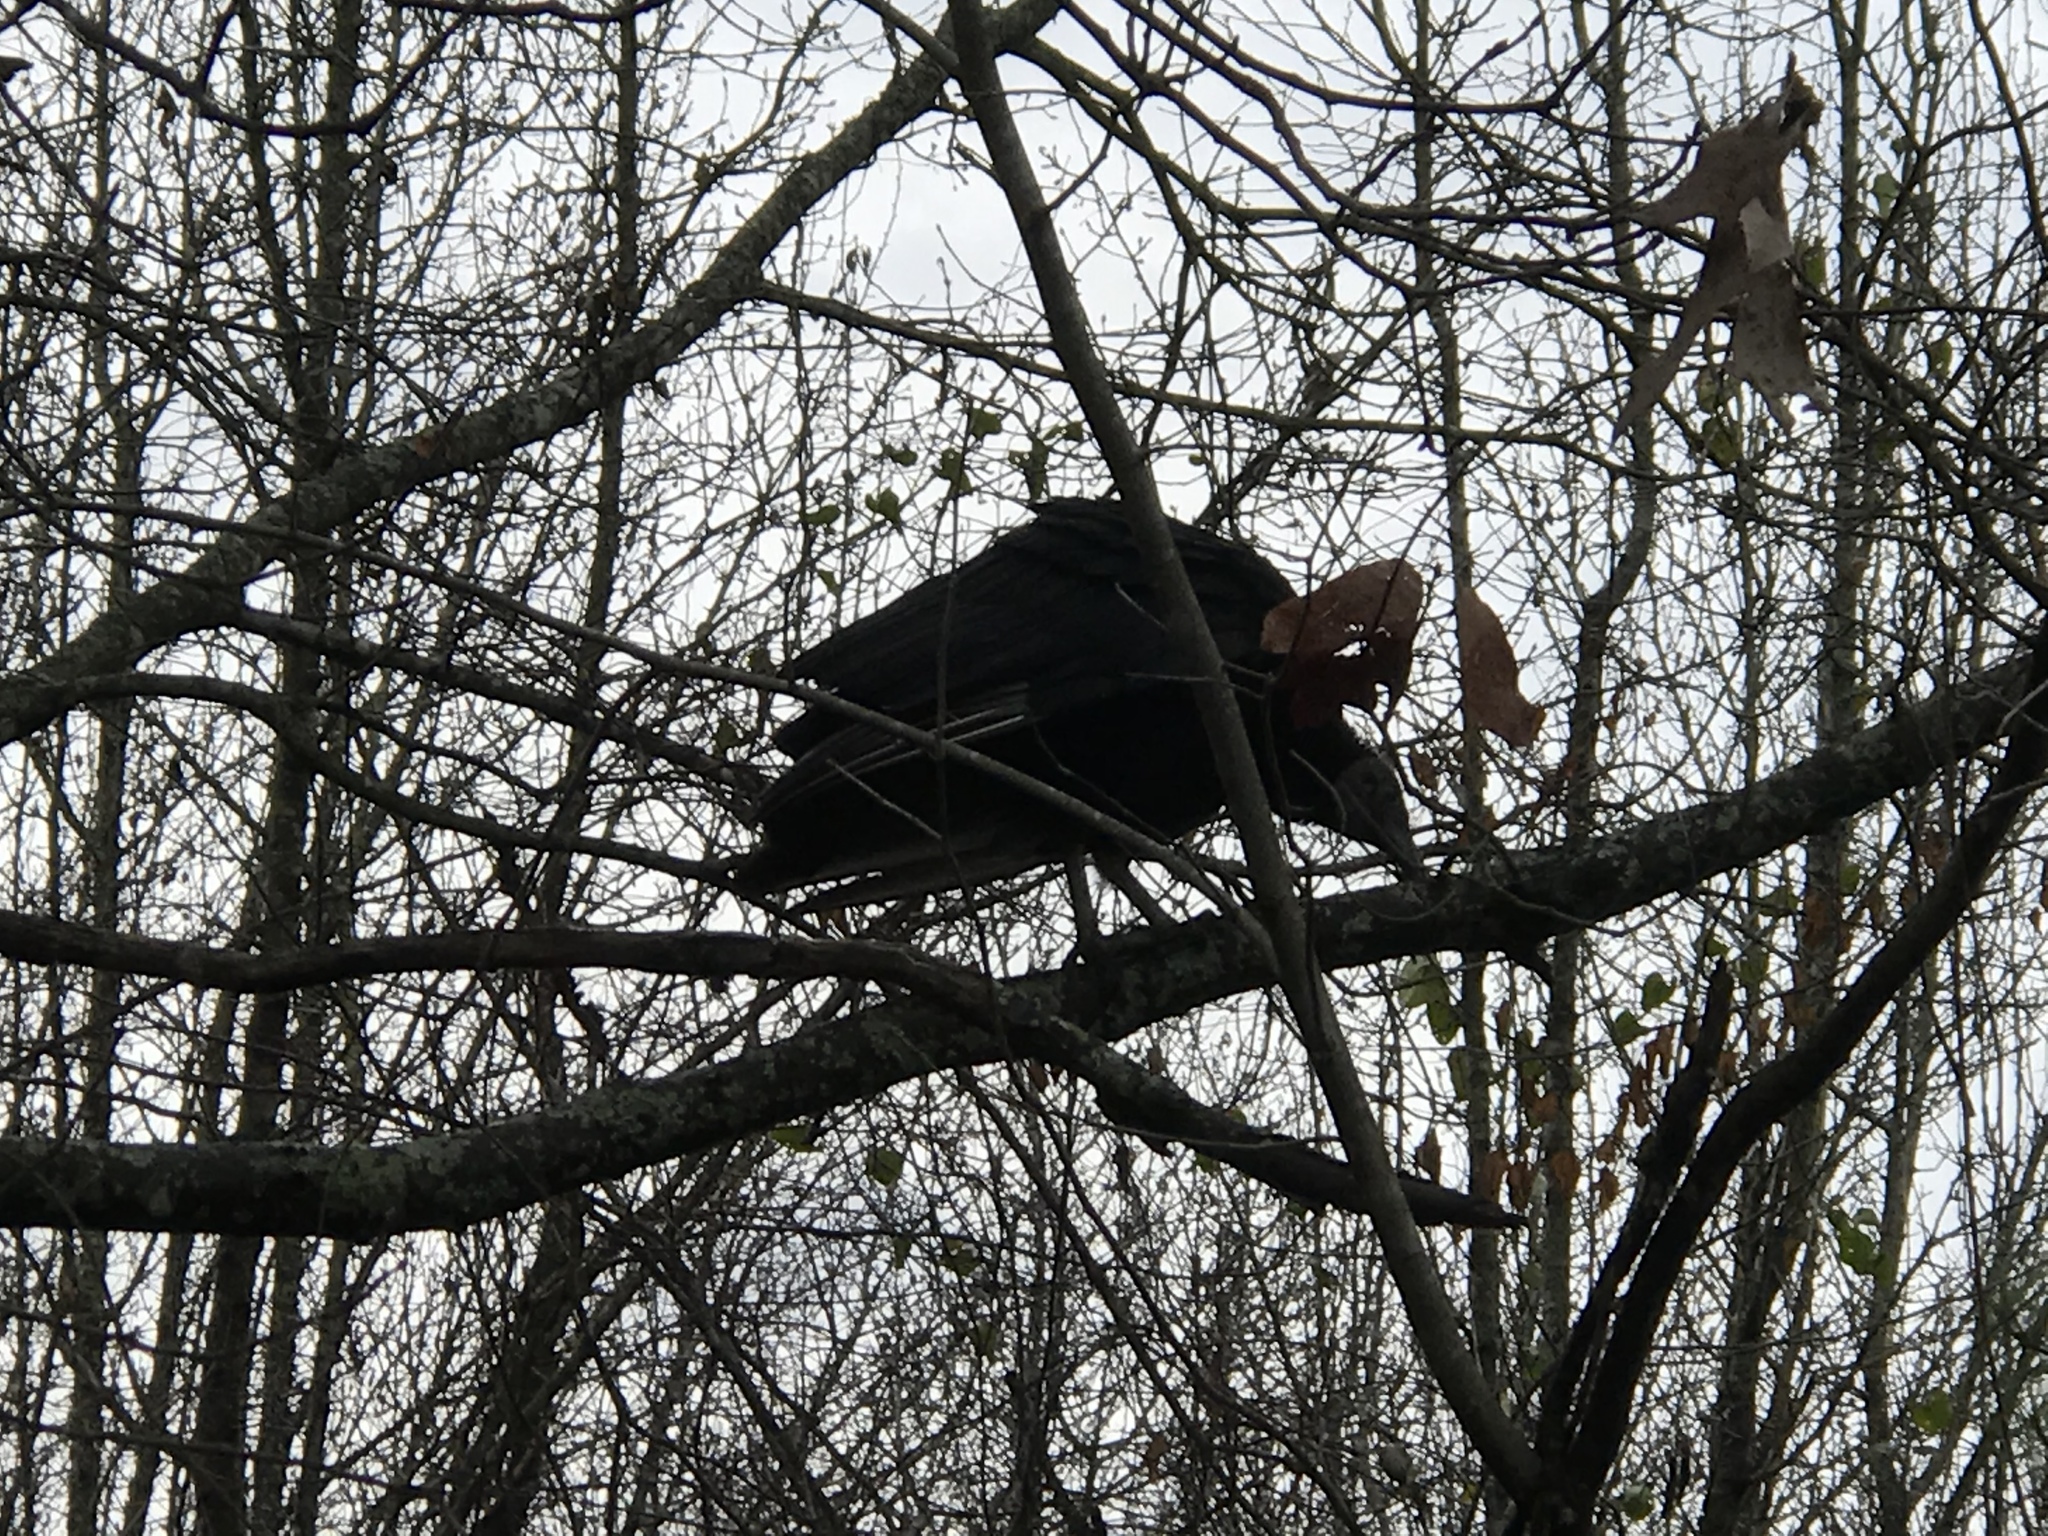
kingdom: Animalia
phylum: Chordata
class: Aves
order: Accipitriformes
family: Cathartidae
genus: Coragyps
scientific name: Coragyps atratus
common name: Black vulture
